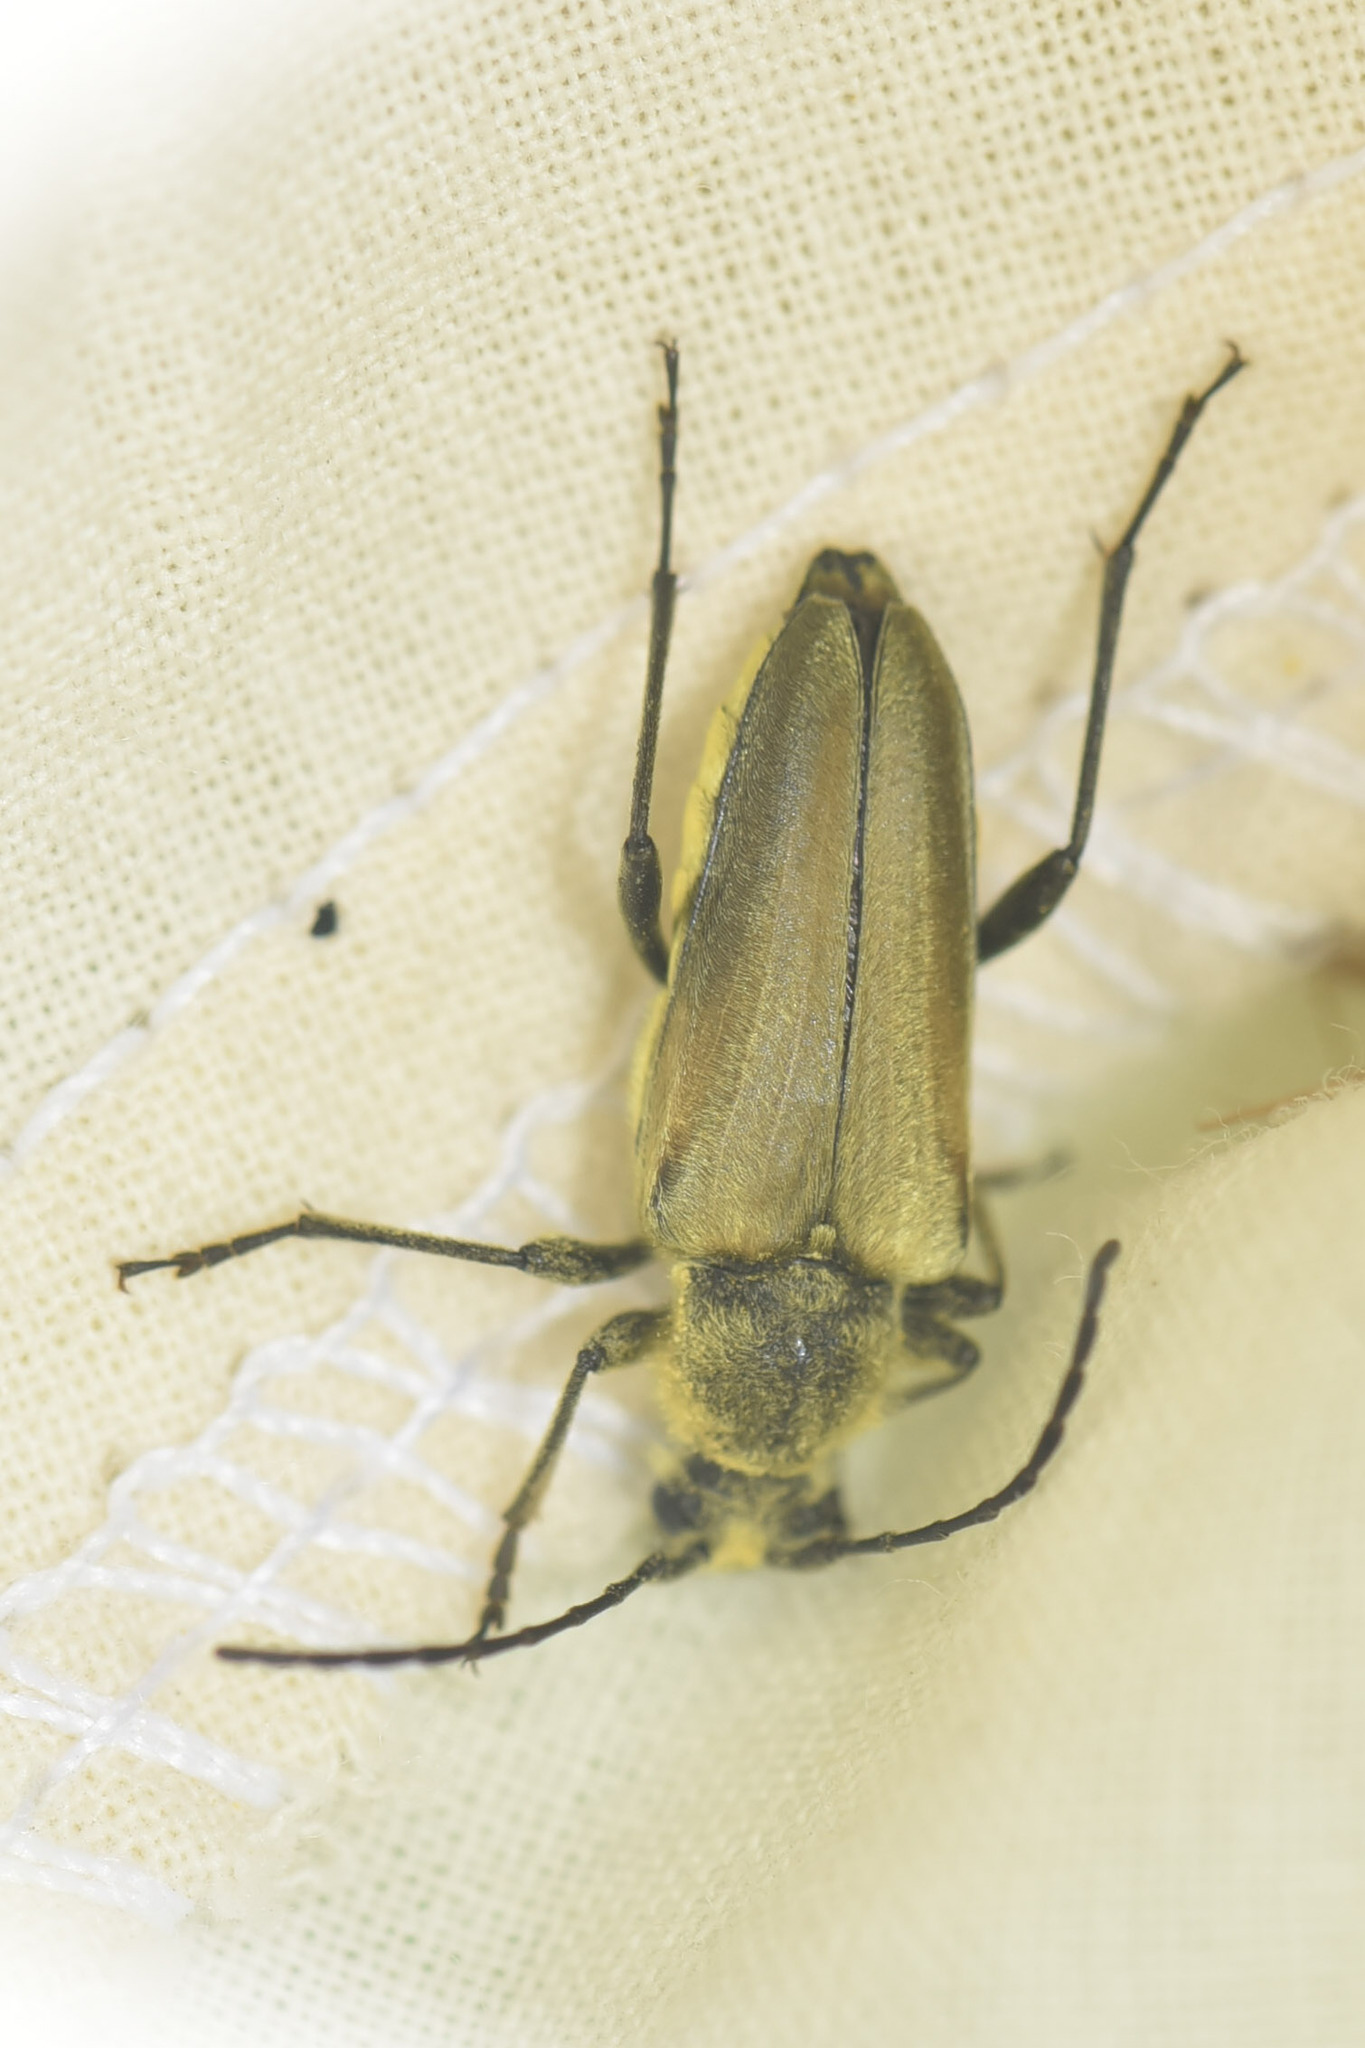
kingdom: Animalia
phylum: Arthropoda
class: Insecta
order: Coleoptera
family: Cerambycidae
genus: Cosmosalia
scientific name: Cosmosalia chrysocoma
